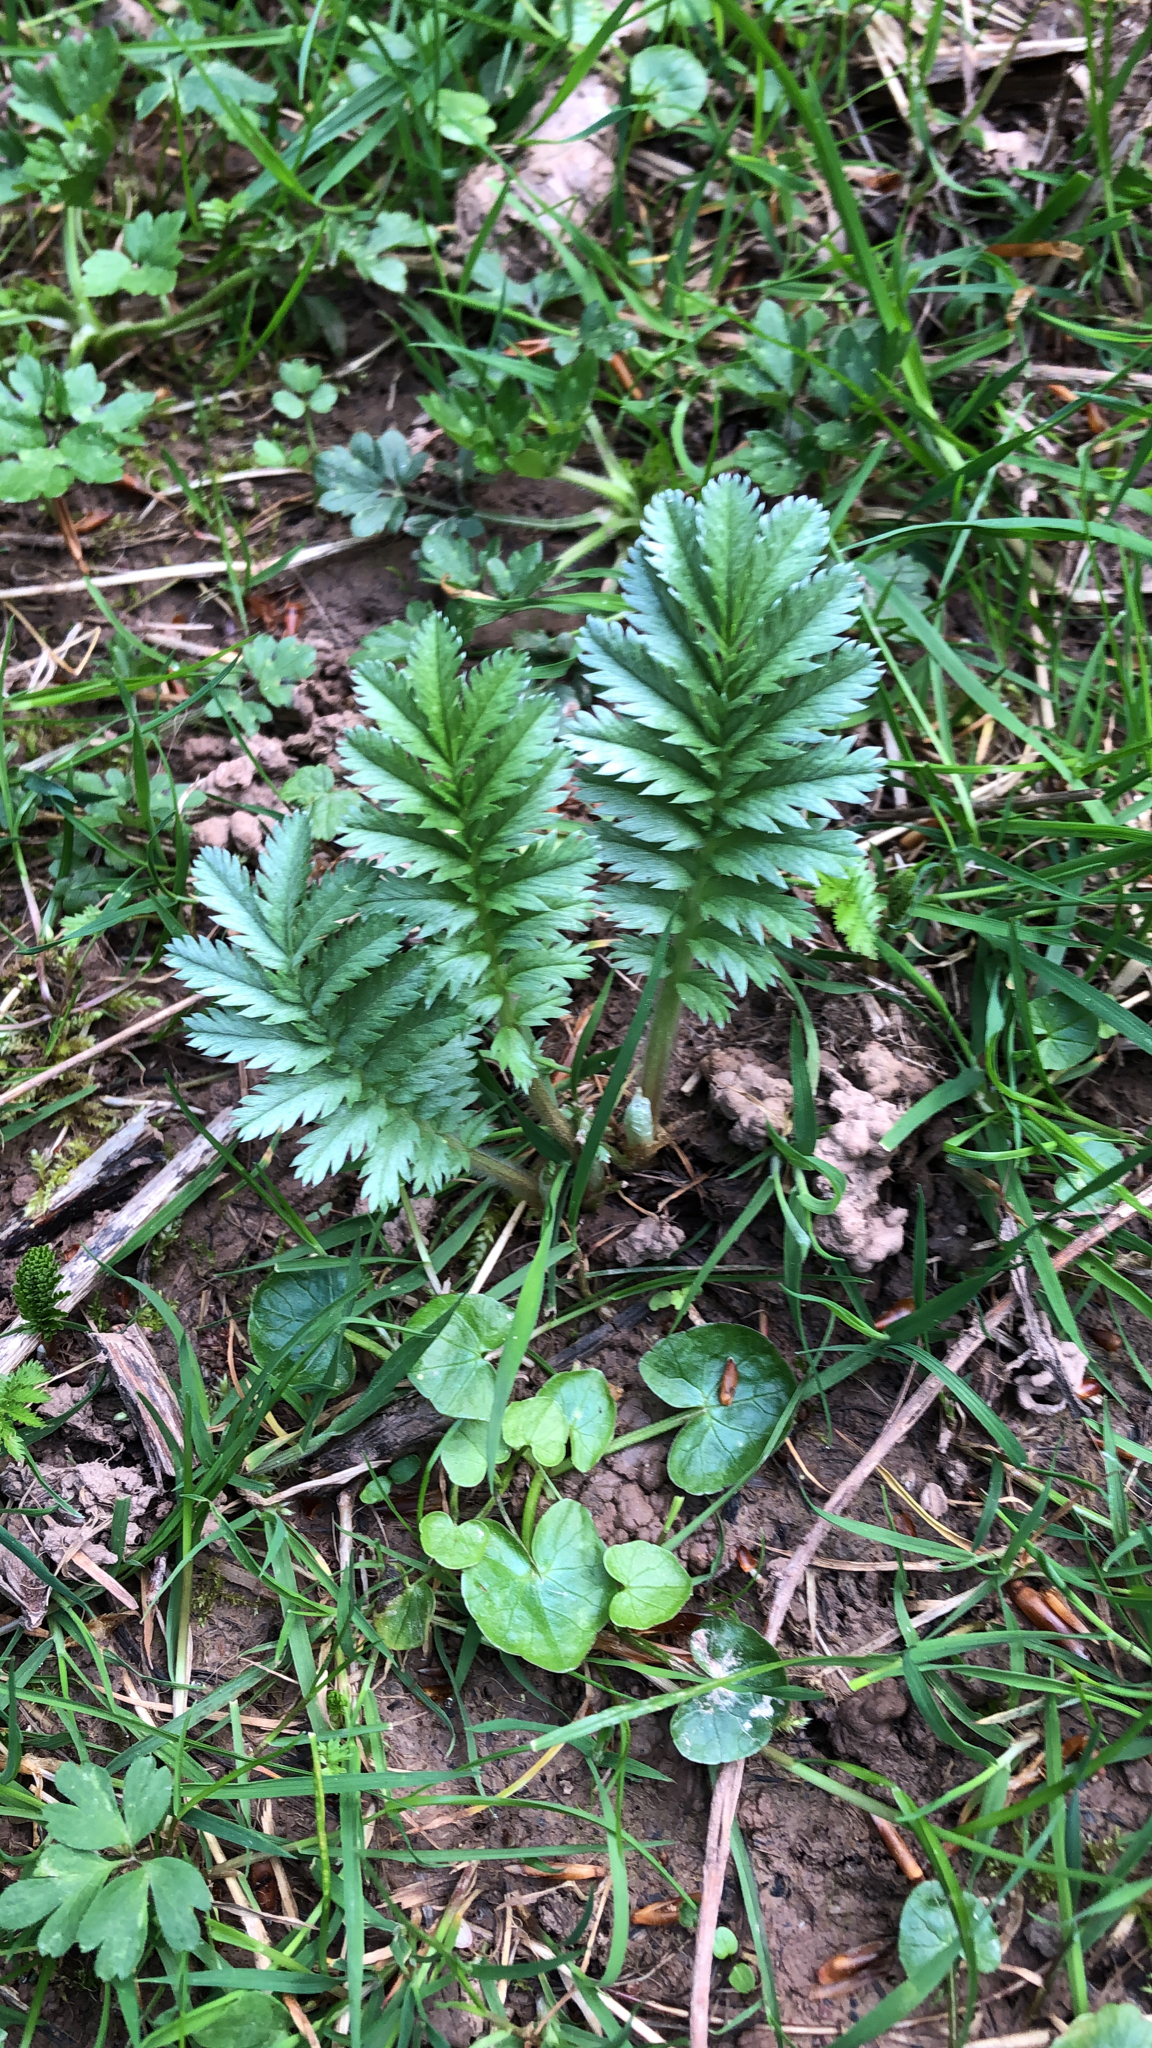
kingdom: Plantae
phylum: Tracheophyta
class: Magnoliopsida
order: Rosales
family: Rosaceae
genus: Argentina
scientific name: Argentina anserina
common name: Common silverweed
